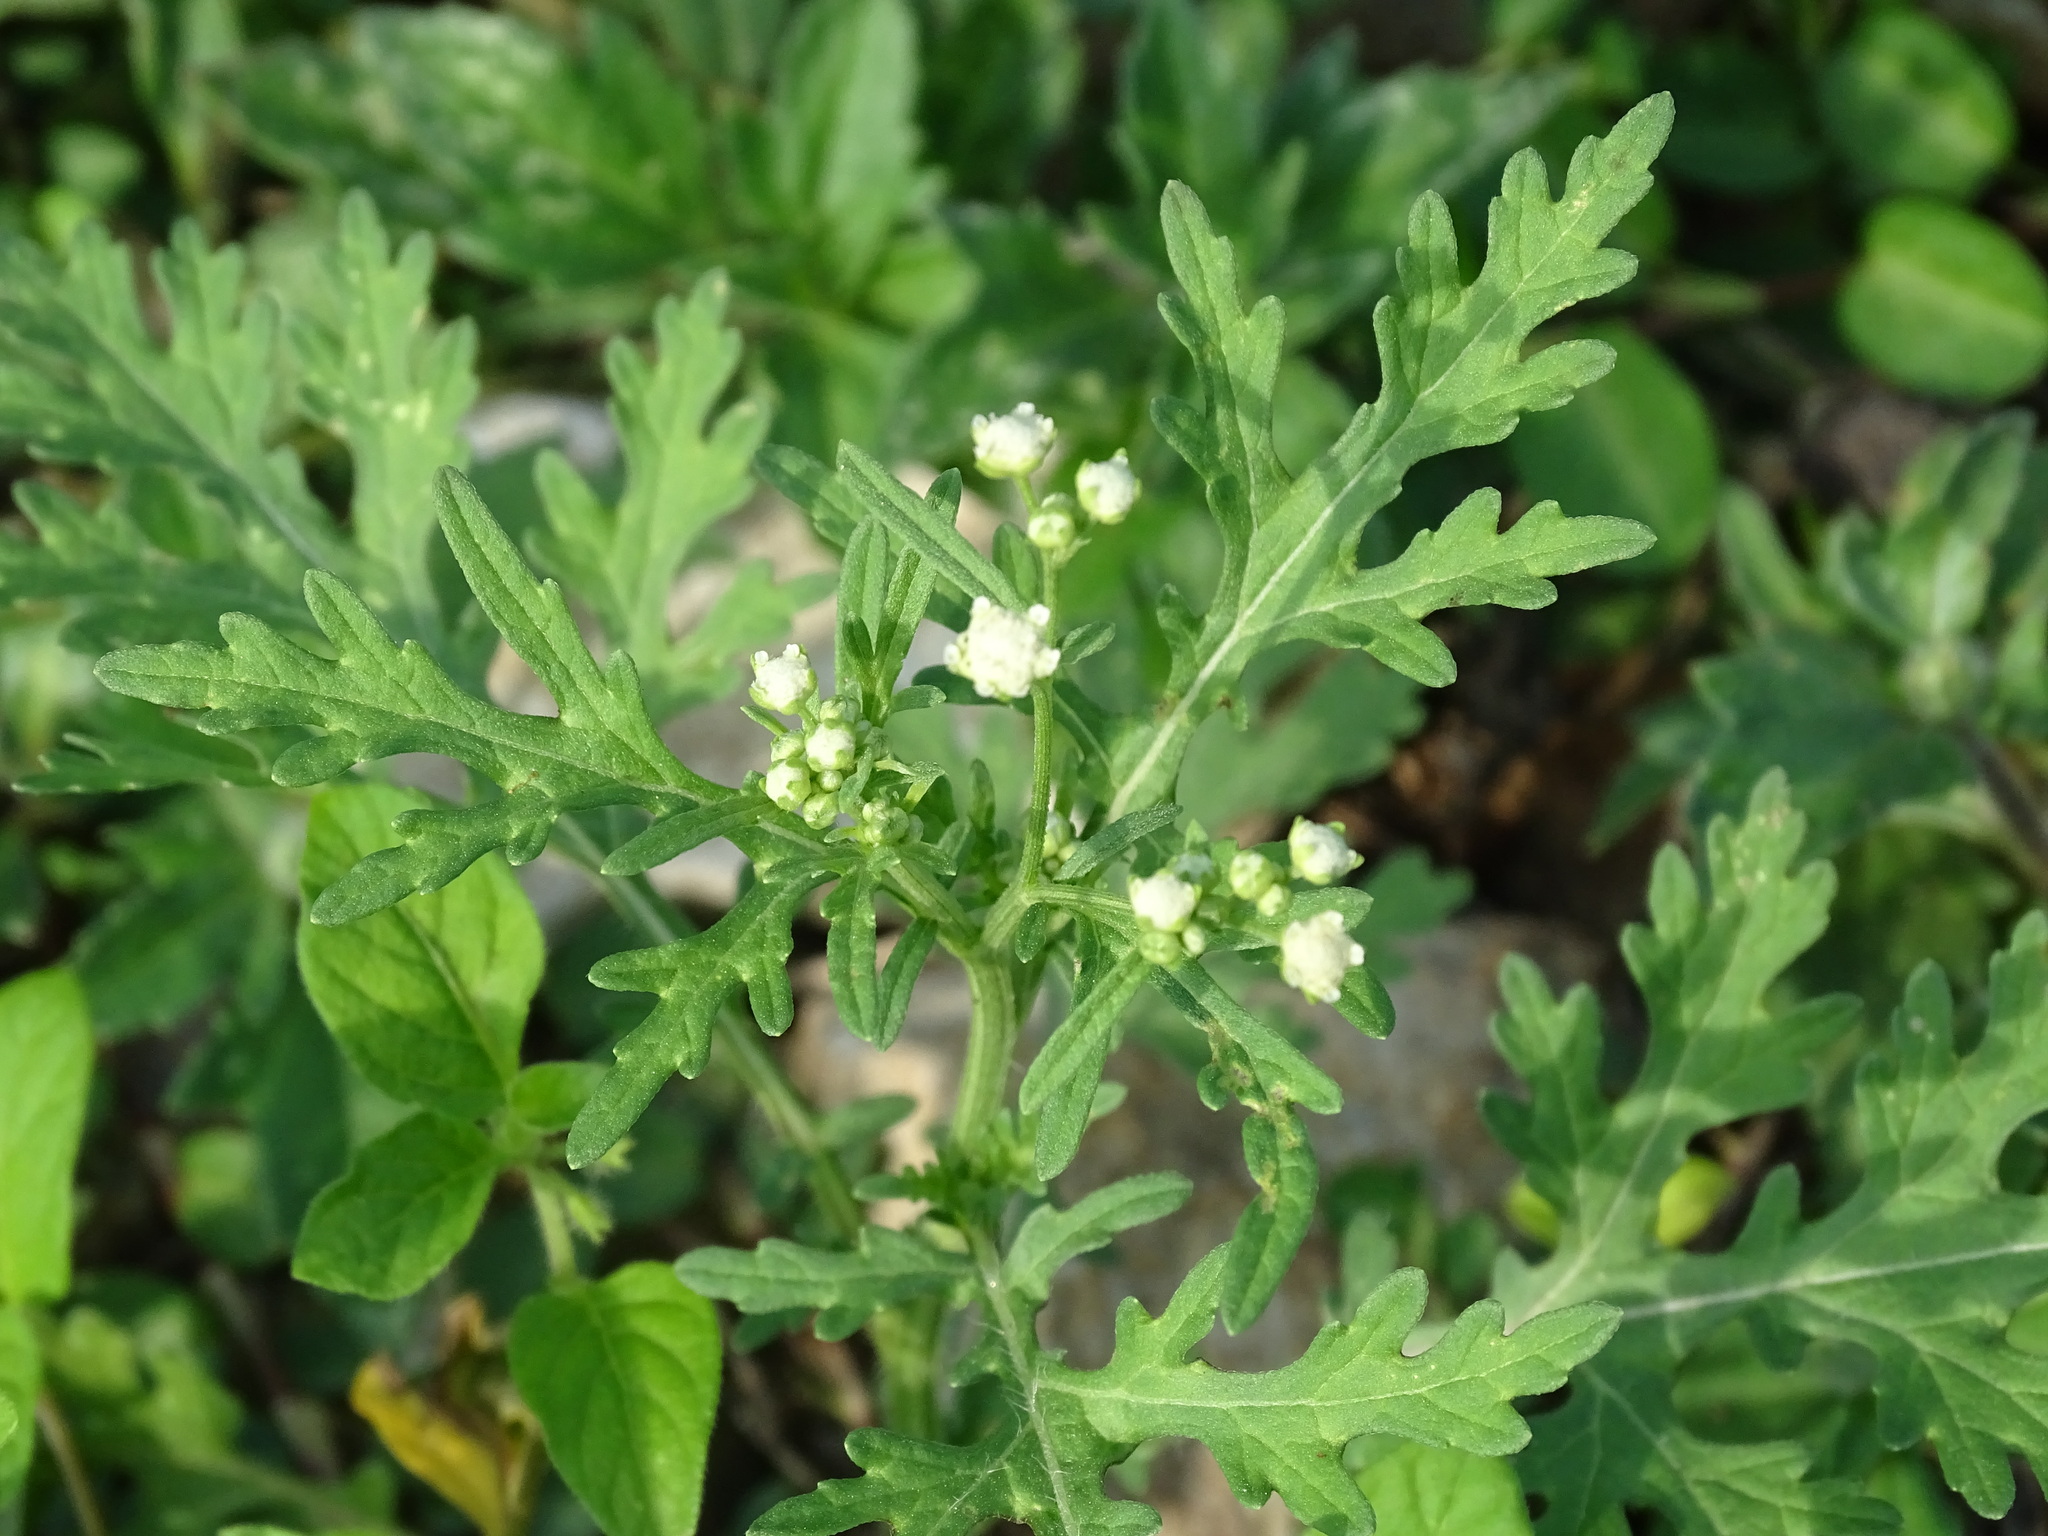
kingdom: Plantae
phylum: Tracheophyta
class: Magnoliopsida
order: Asterales
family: Asteraceae
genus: Parthenium
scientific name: Parthenium hysterophorus
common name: Santa maria feverfew
